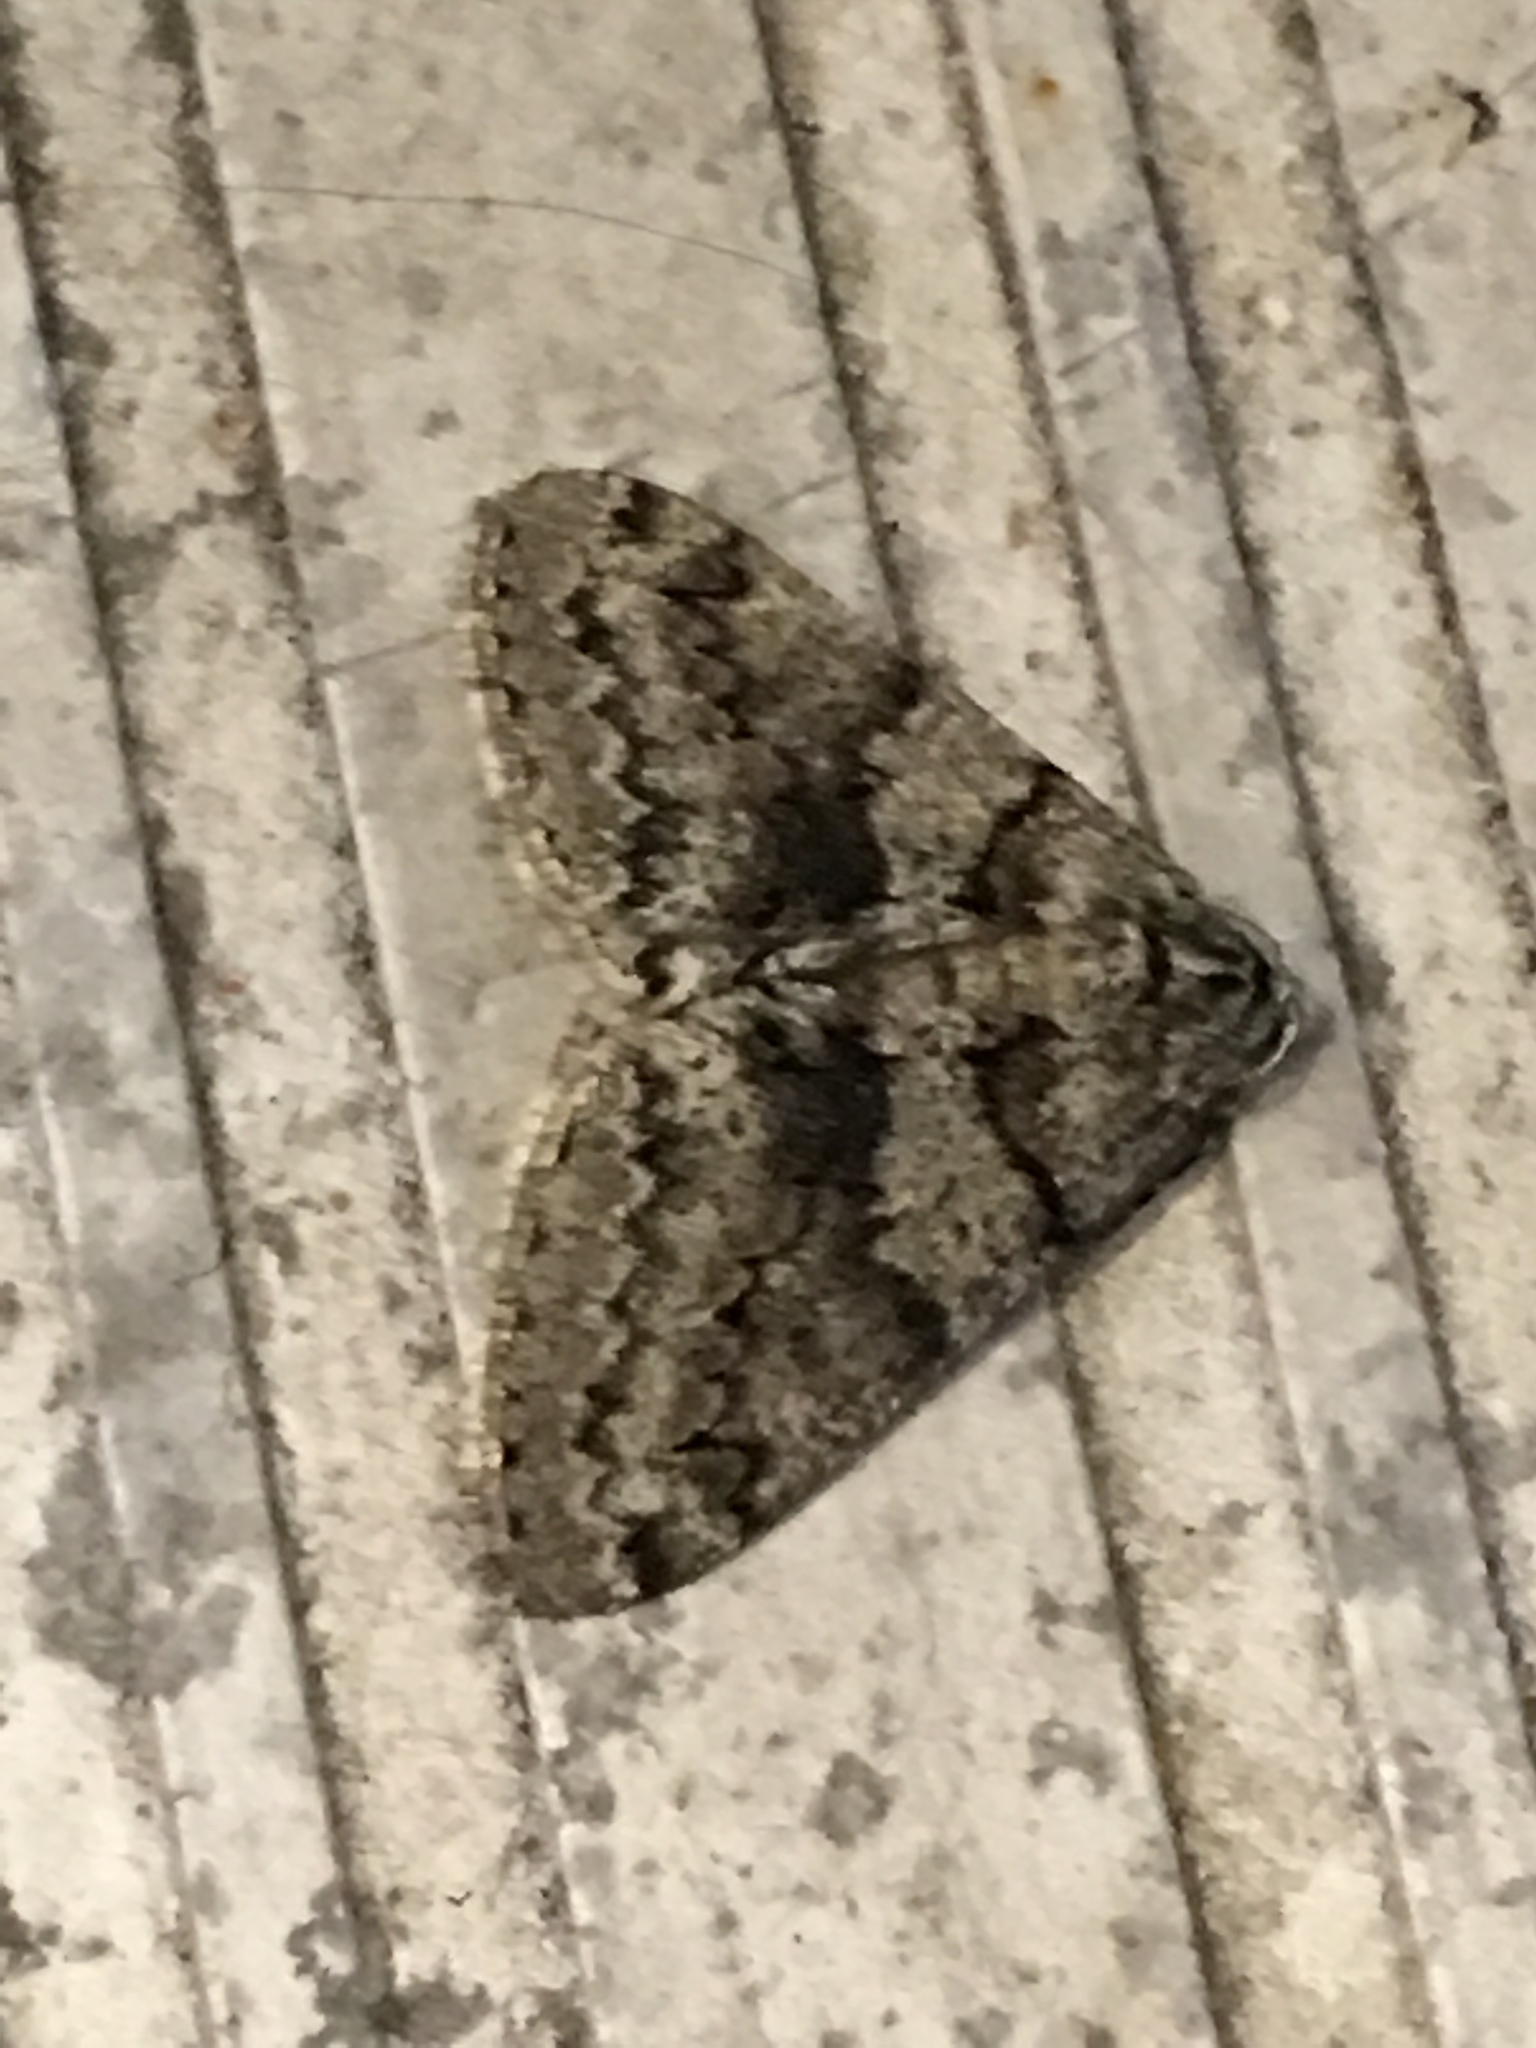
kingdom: Animalia
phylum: Arthropoda
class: Insecta
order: Lepidoptera
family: Geometridae
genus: Phigalia
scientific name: Phigalia denticulata
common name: Toothed phigalia
